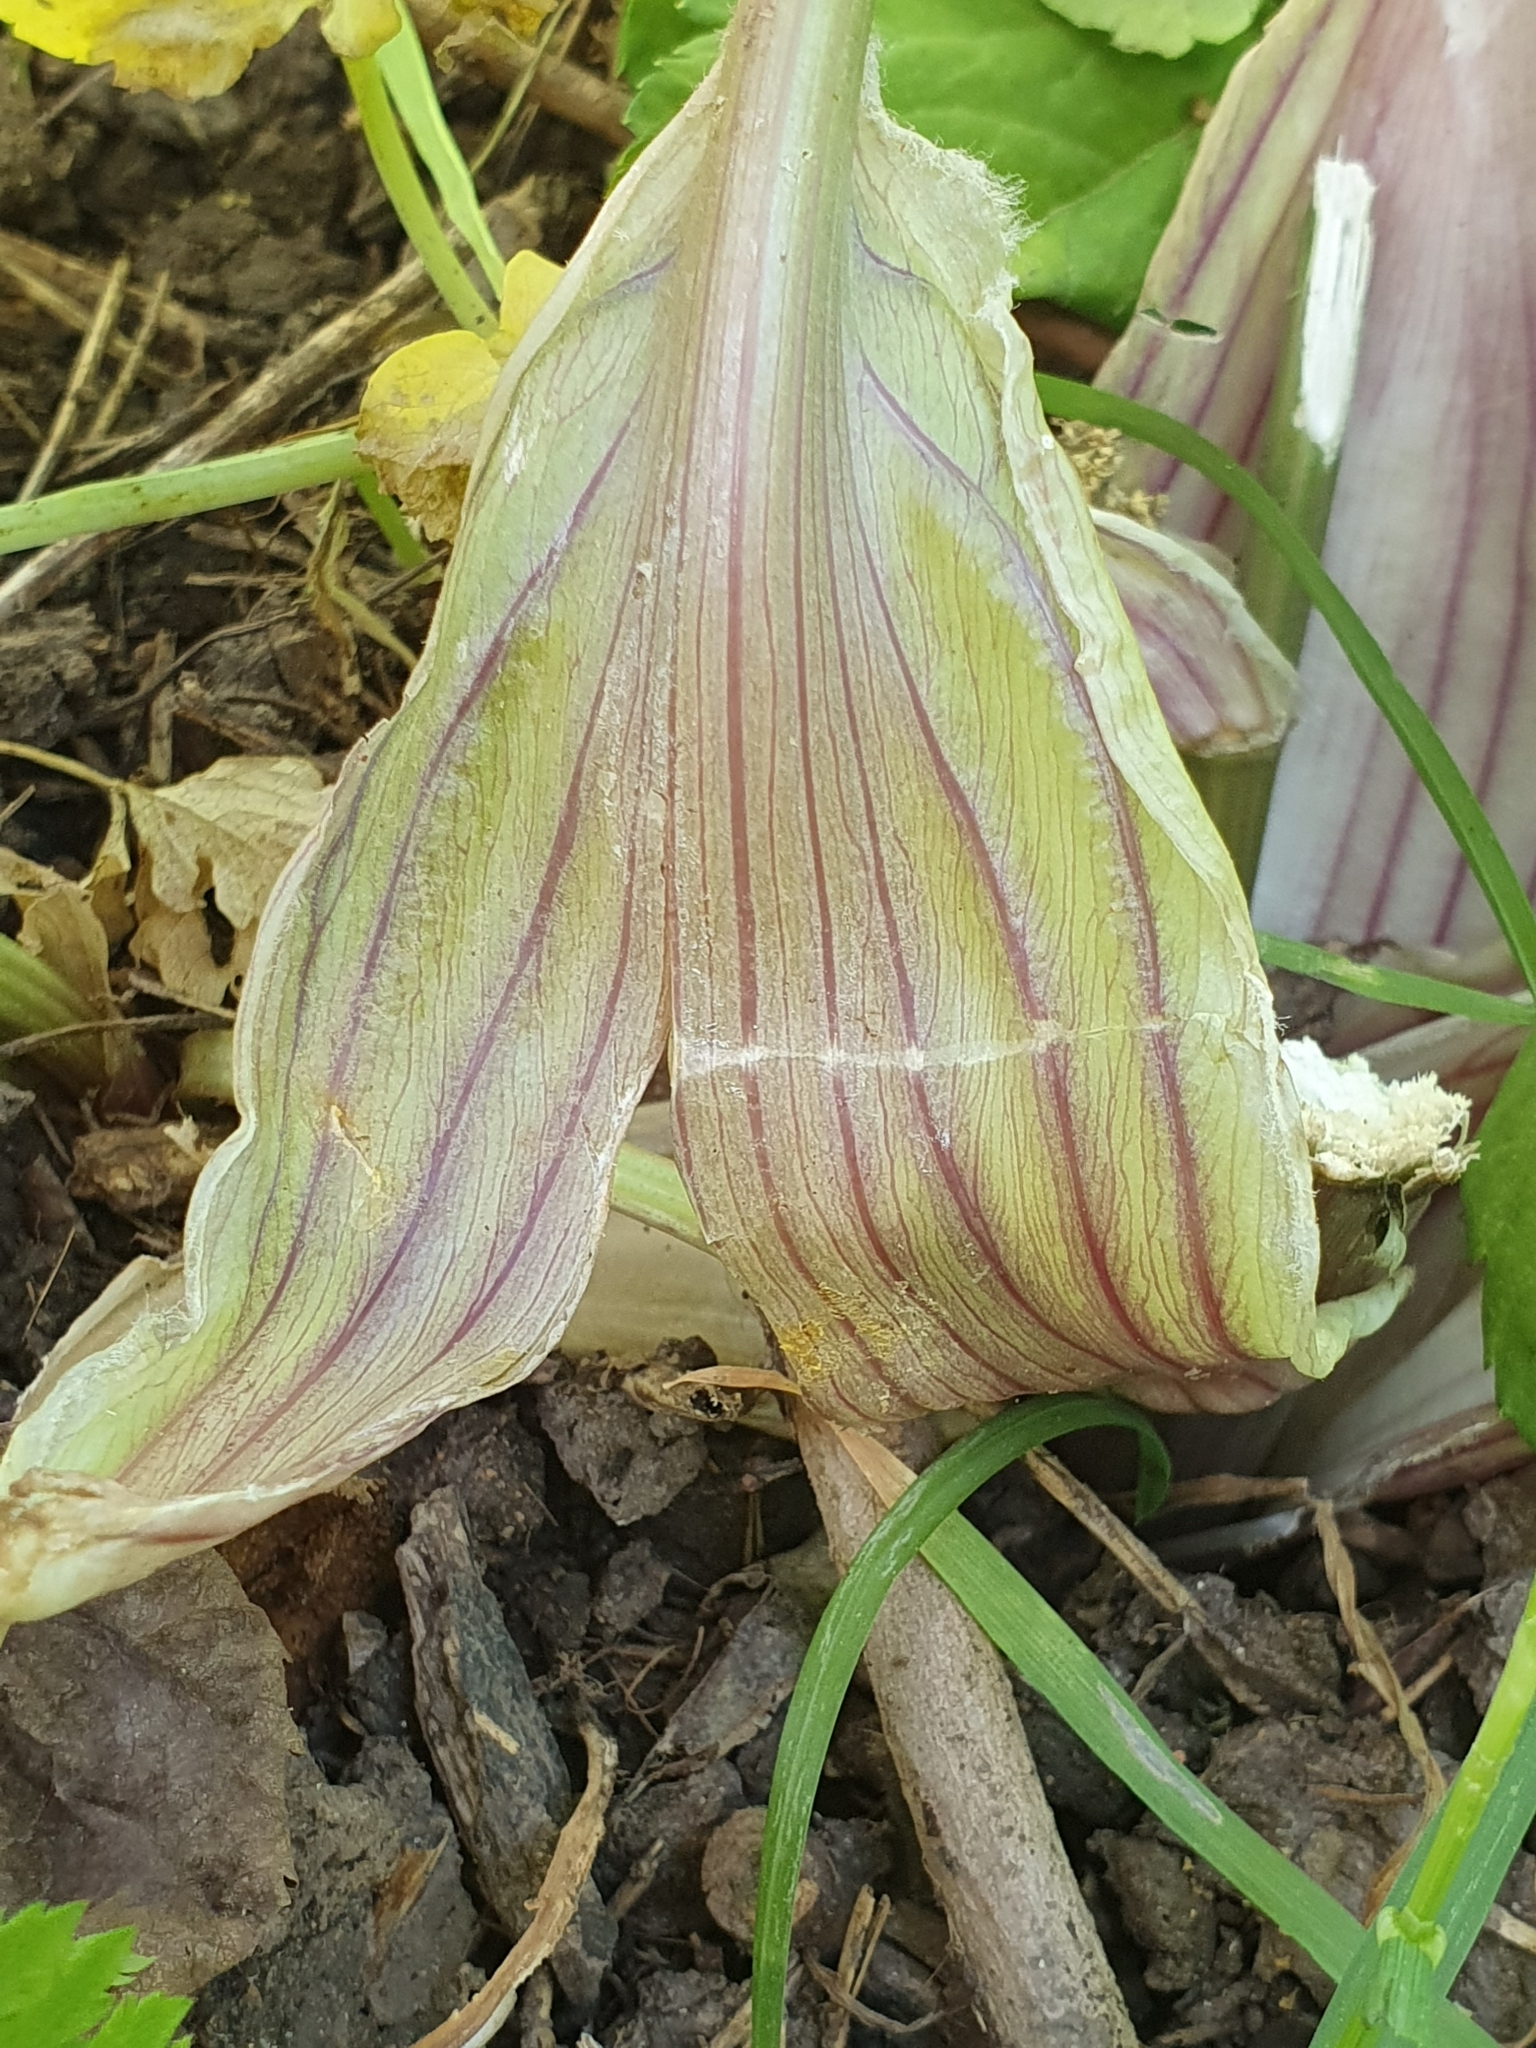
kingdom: Plantae
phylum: Tracheophyta
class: Magnoliopsida
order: Apiales
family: Apiaceae
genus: Smyrnium
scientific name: Smyrnium olusatrum
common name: Alexanders
